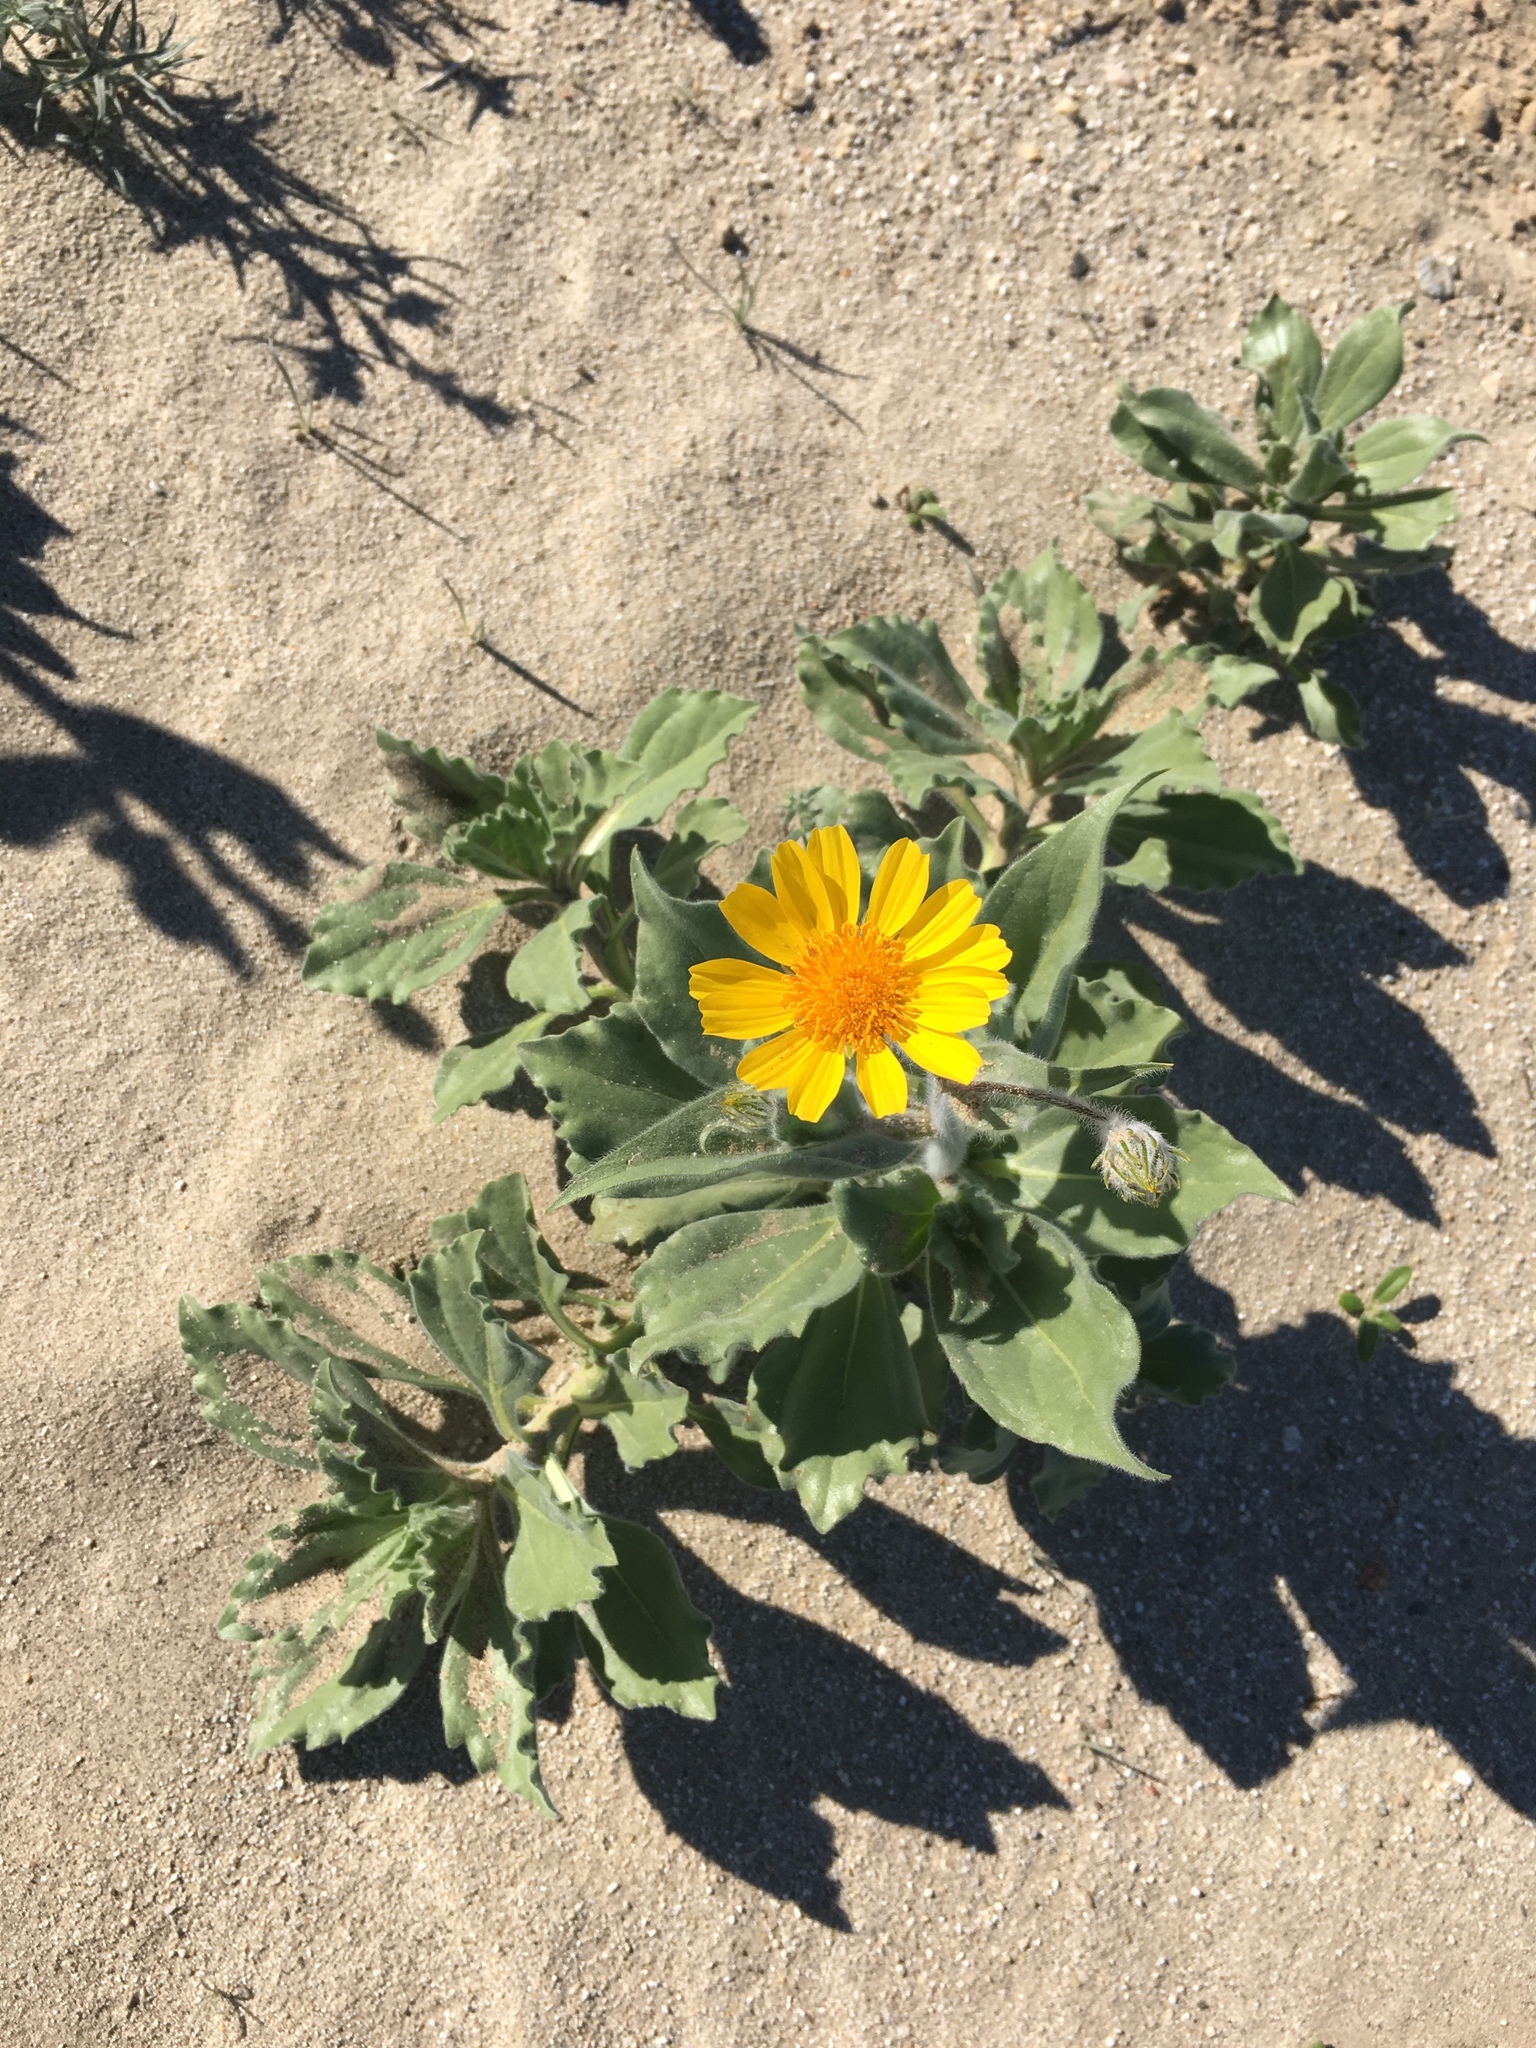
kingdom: Plantae
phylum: Tracheophyta
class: Magnoliopsida
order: Asterales
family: Asteraceae
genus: Geraea
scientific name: Geraea canescens
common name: Desert-gold
